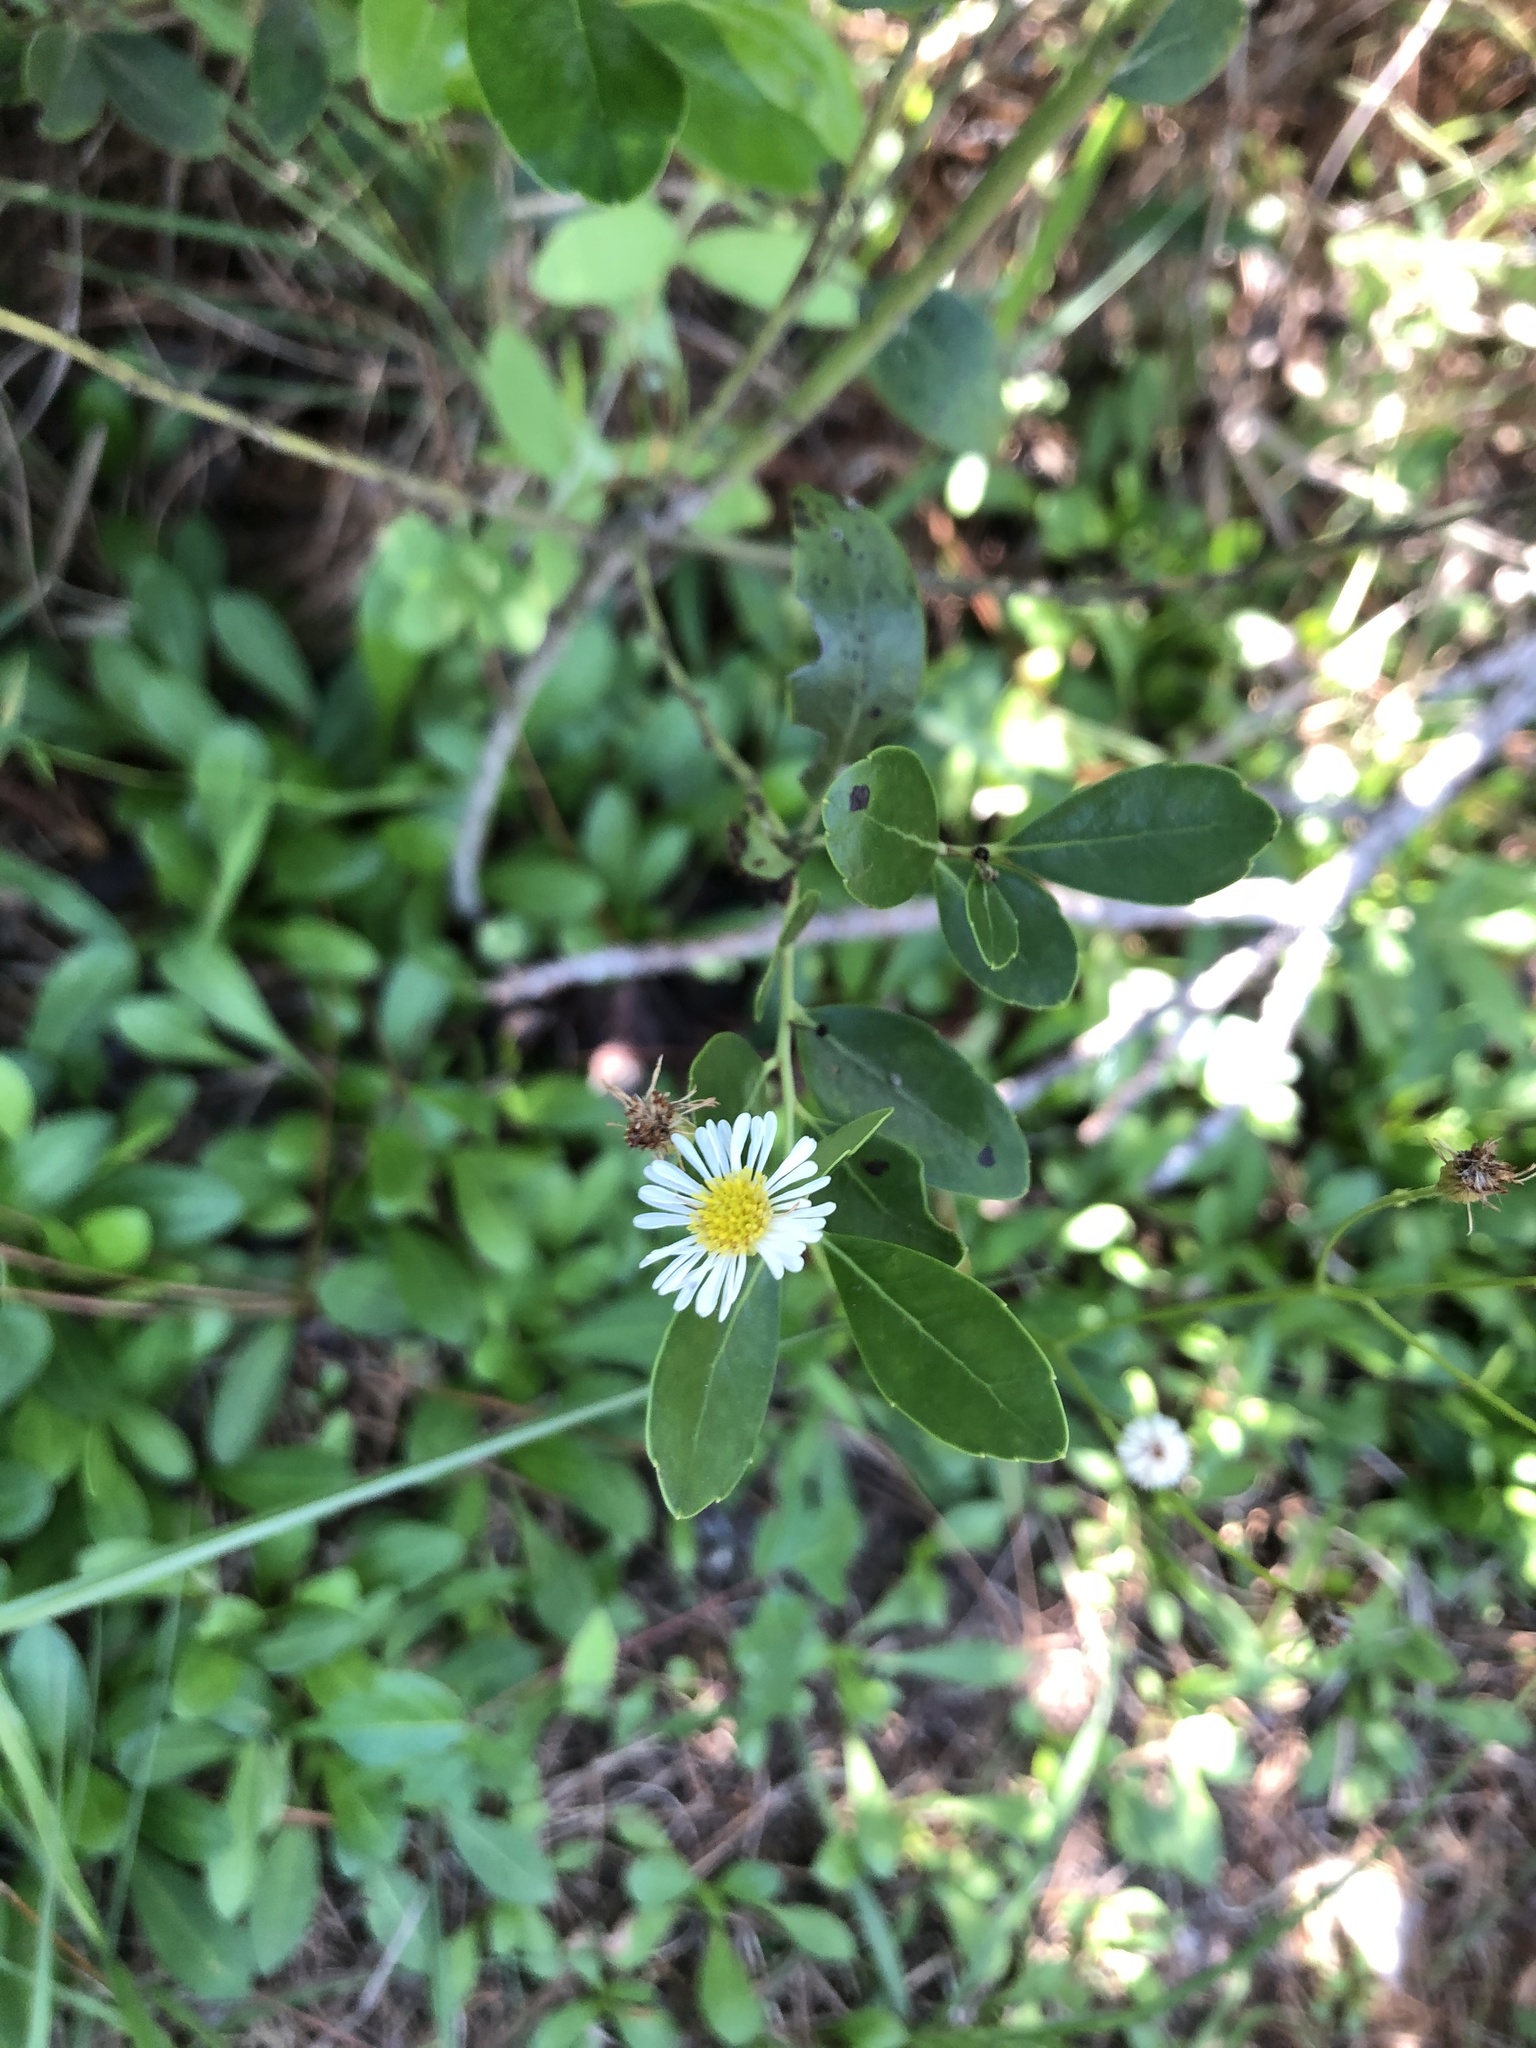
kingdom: Plantae
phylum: Tracheophyta
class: Magnoliopsida
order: Asterales
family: Asteraceae
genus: Erigeron
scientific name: Erigeron vernus
